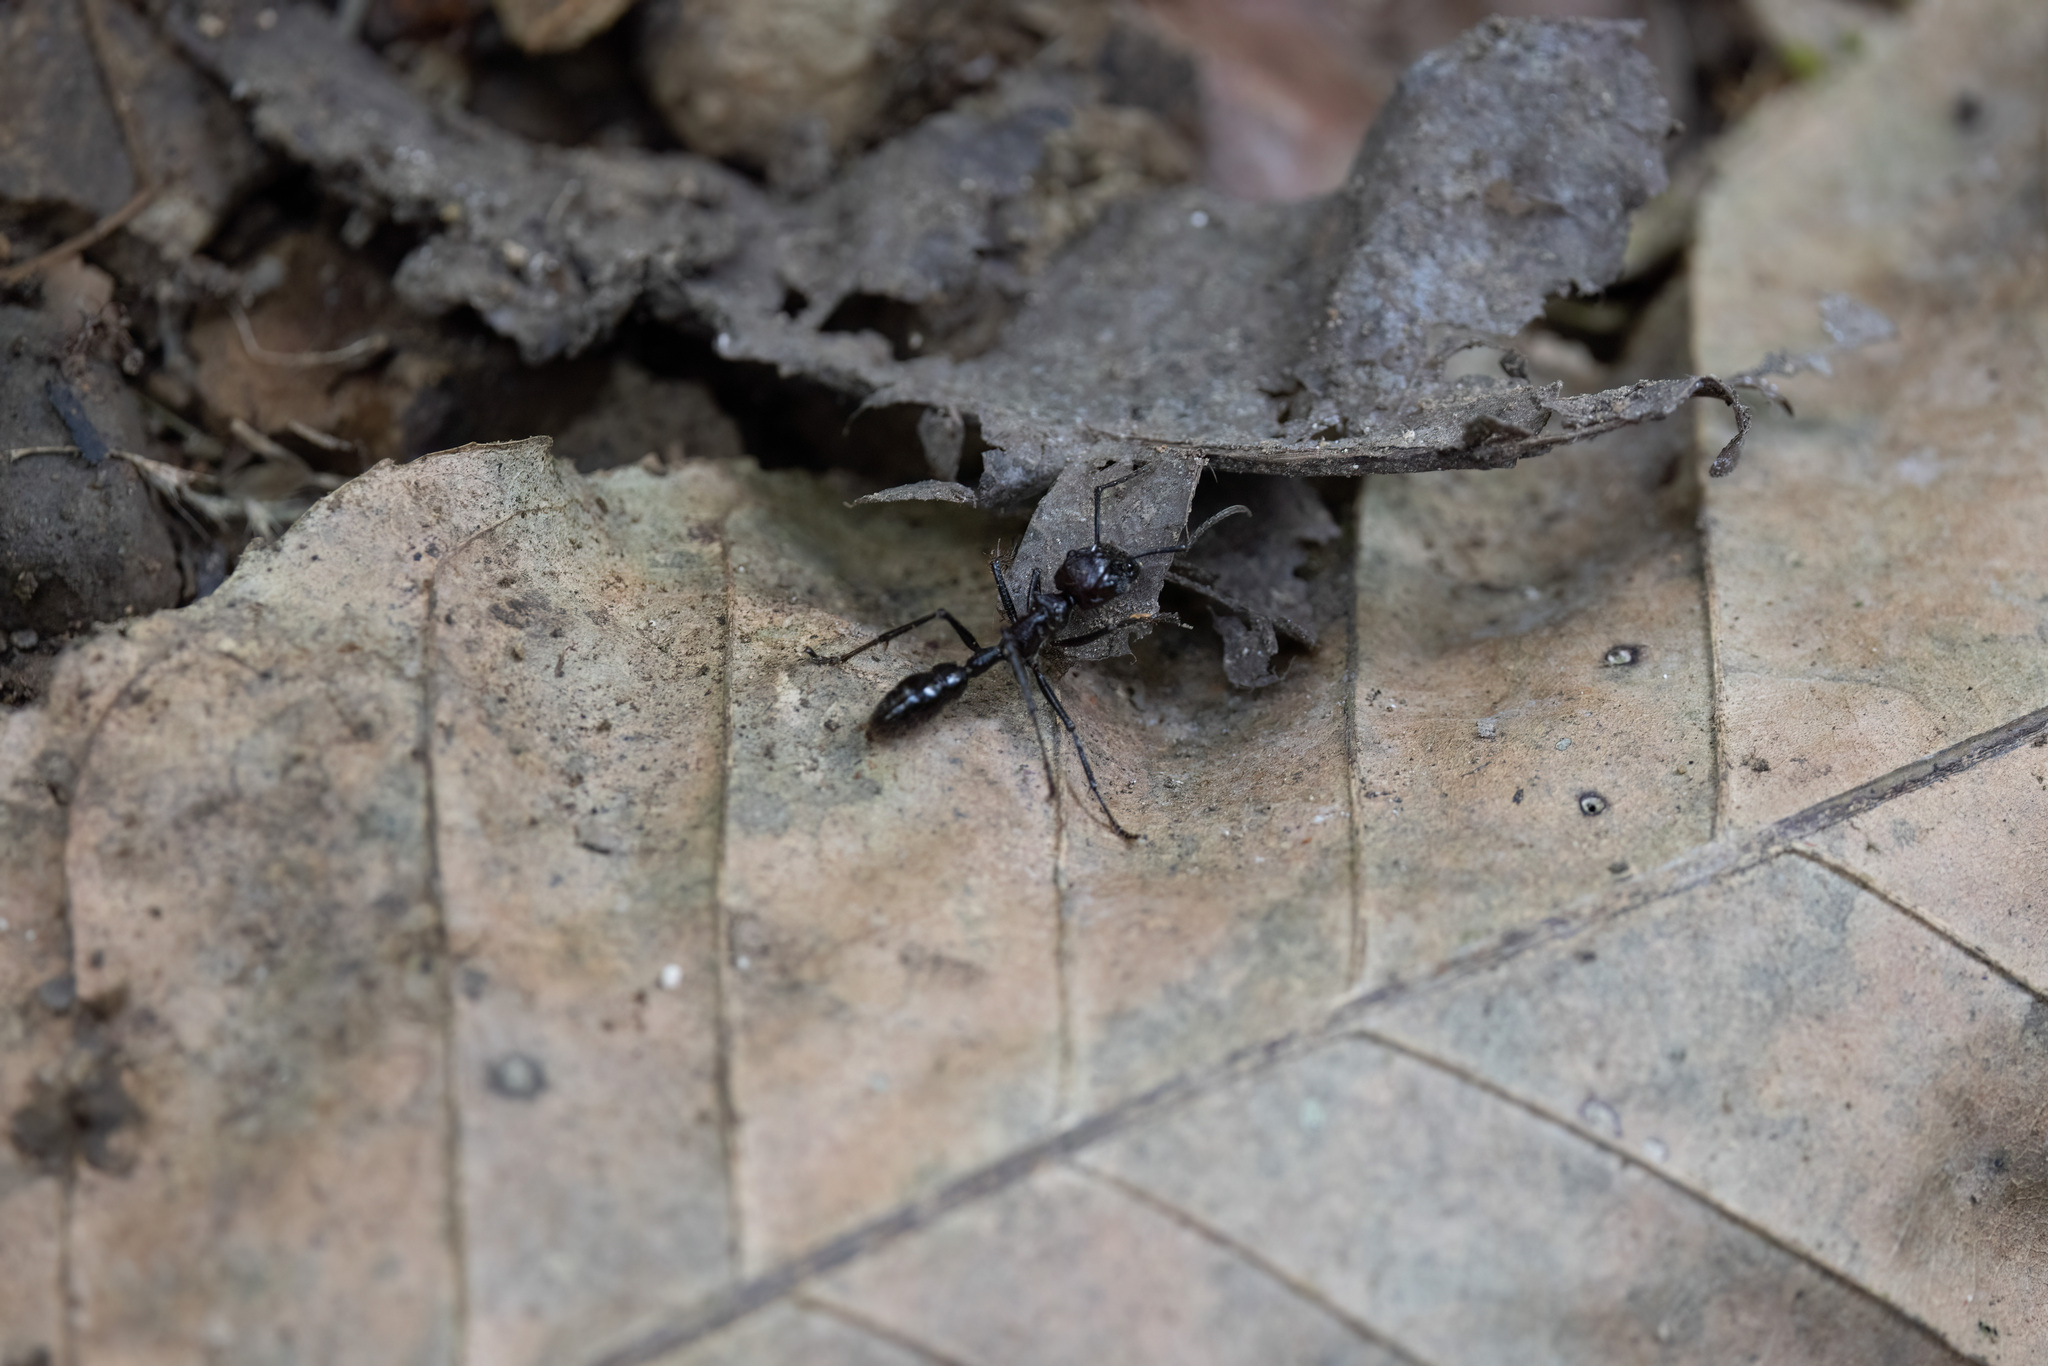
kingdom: Animalia
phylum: Arthropoda
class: Insecta
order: Hymenoptera
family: Formicidae
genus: Paraponera
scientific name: Paraponera clavata
